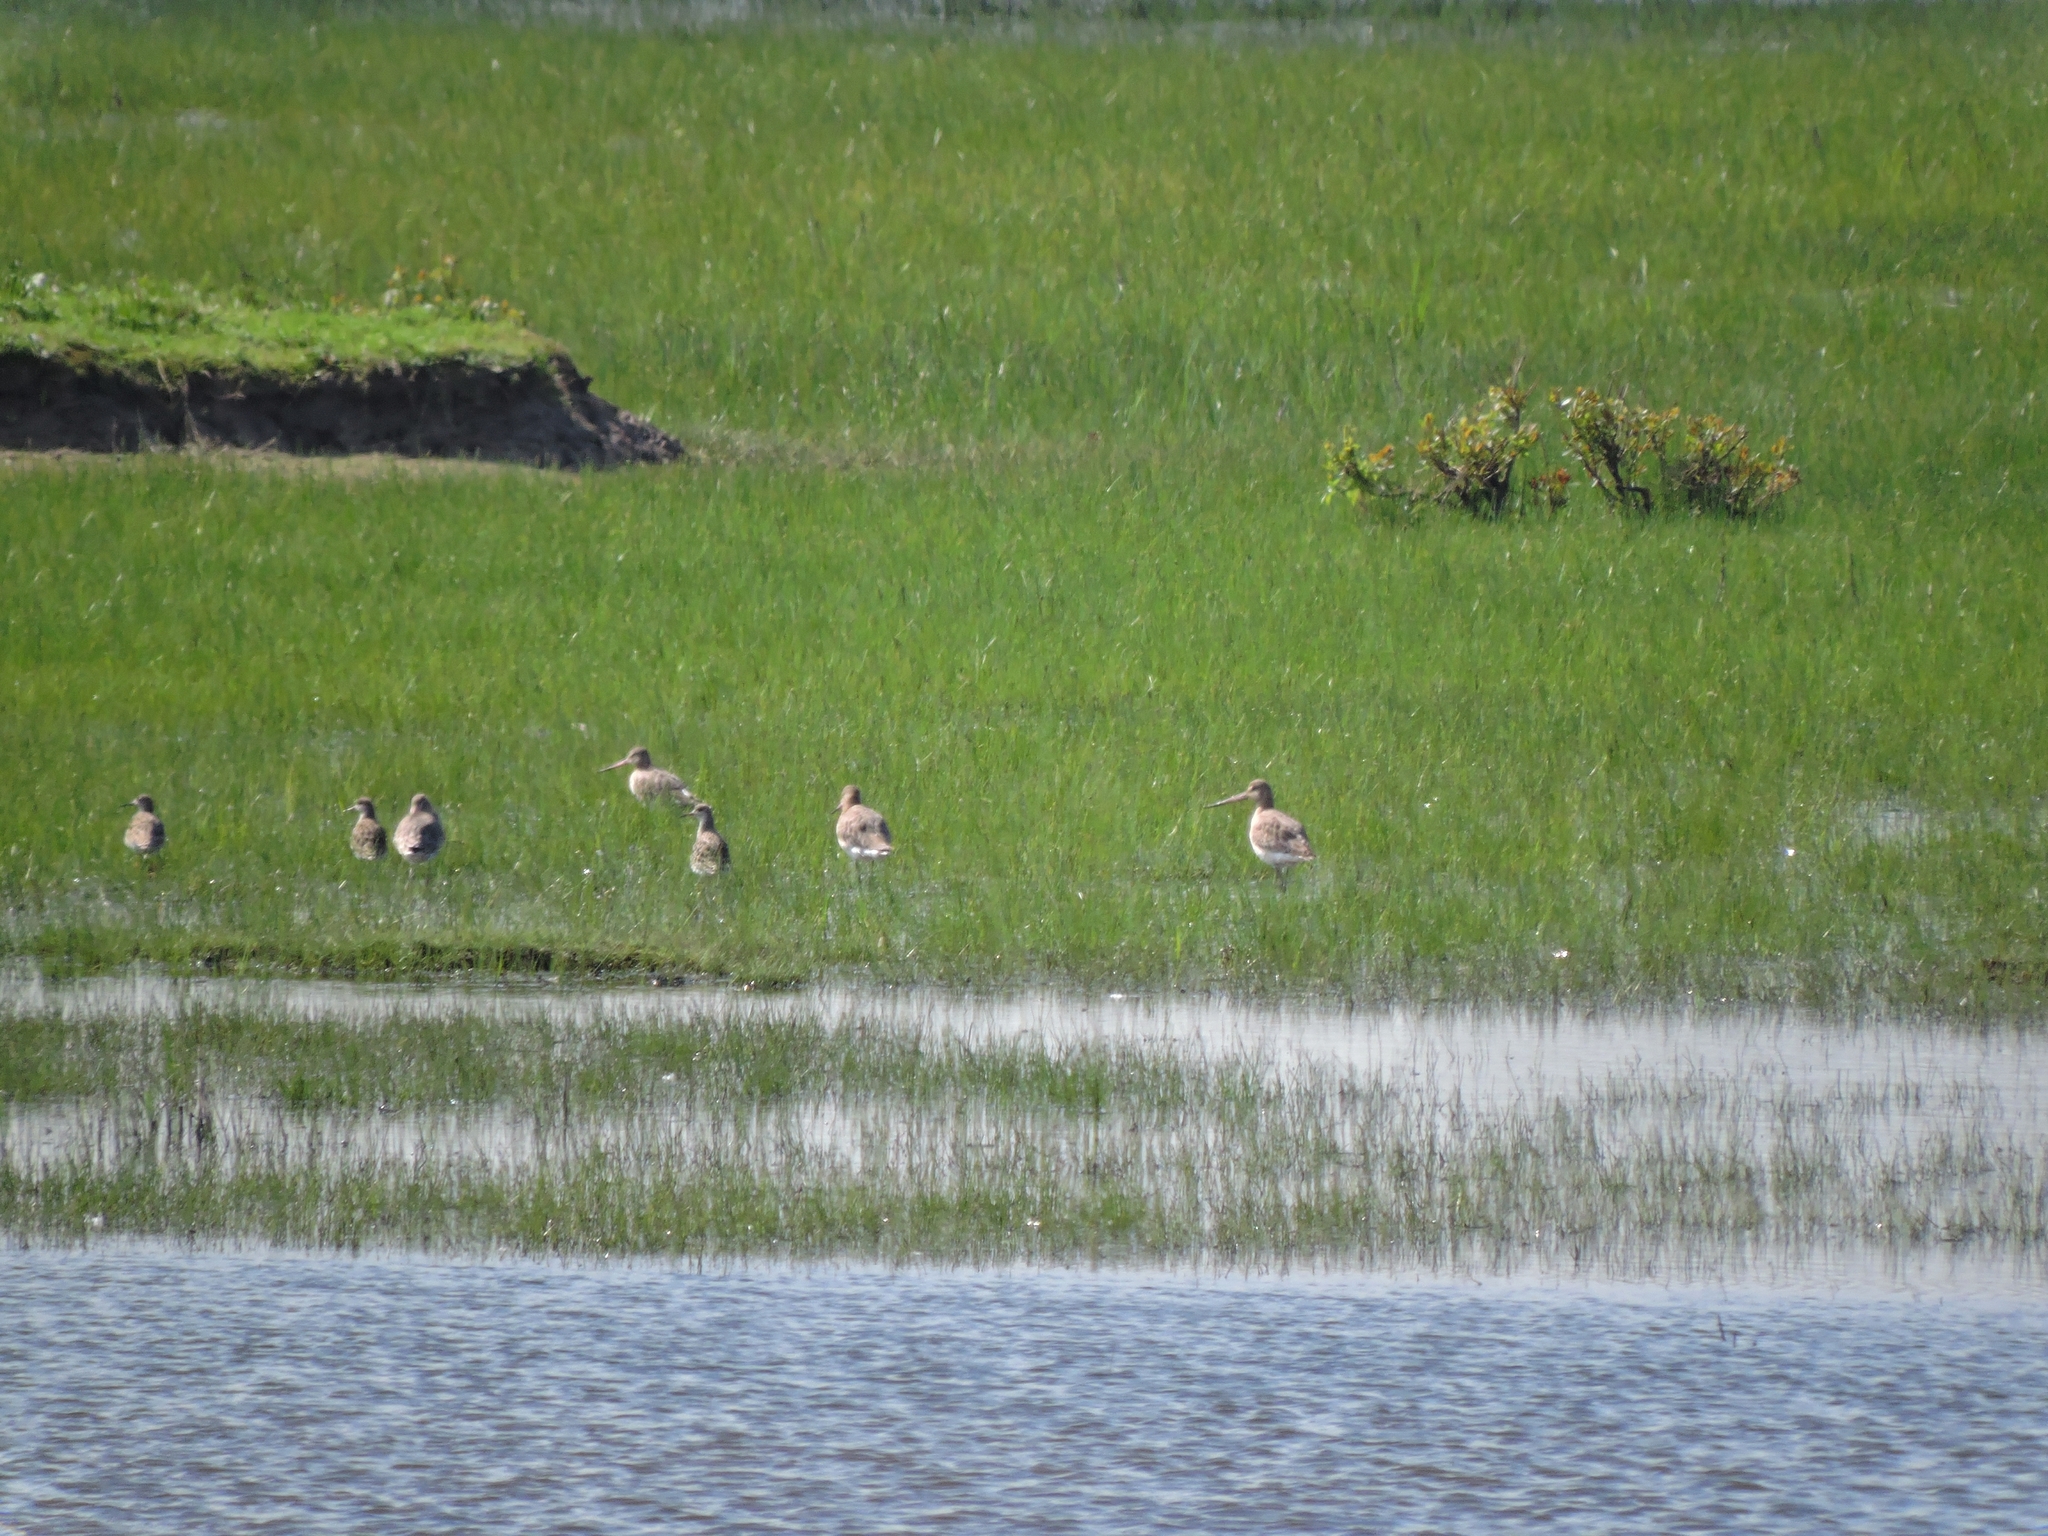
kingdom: Animalia
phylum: Chordata
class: Aves
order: Charadriiformes
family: Scolopacidae
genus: Limosa
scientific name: Limosa limosa
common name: Black-tailed godwit
